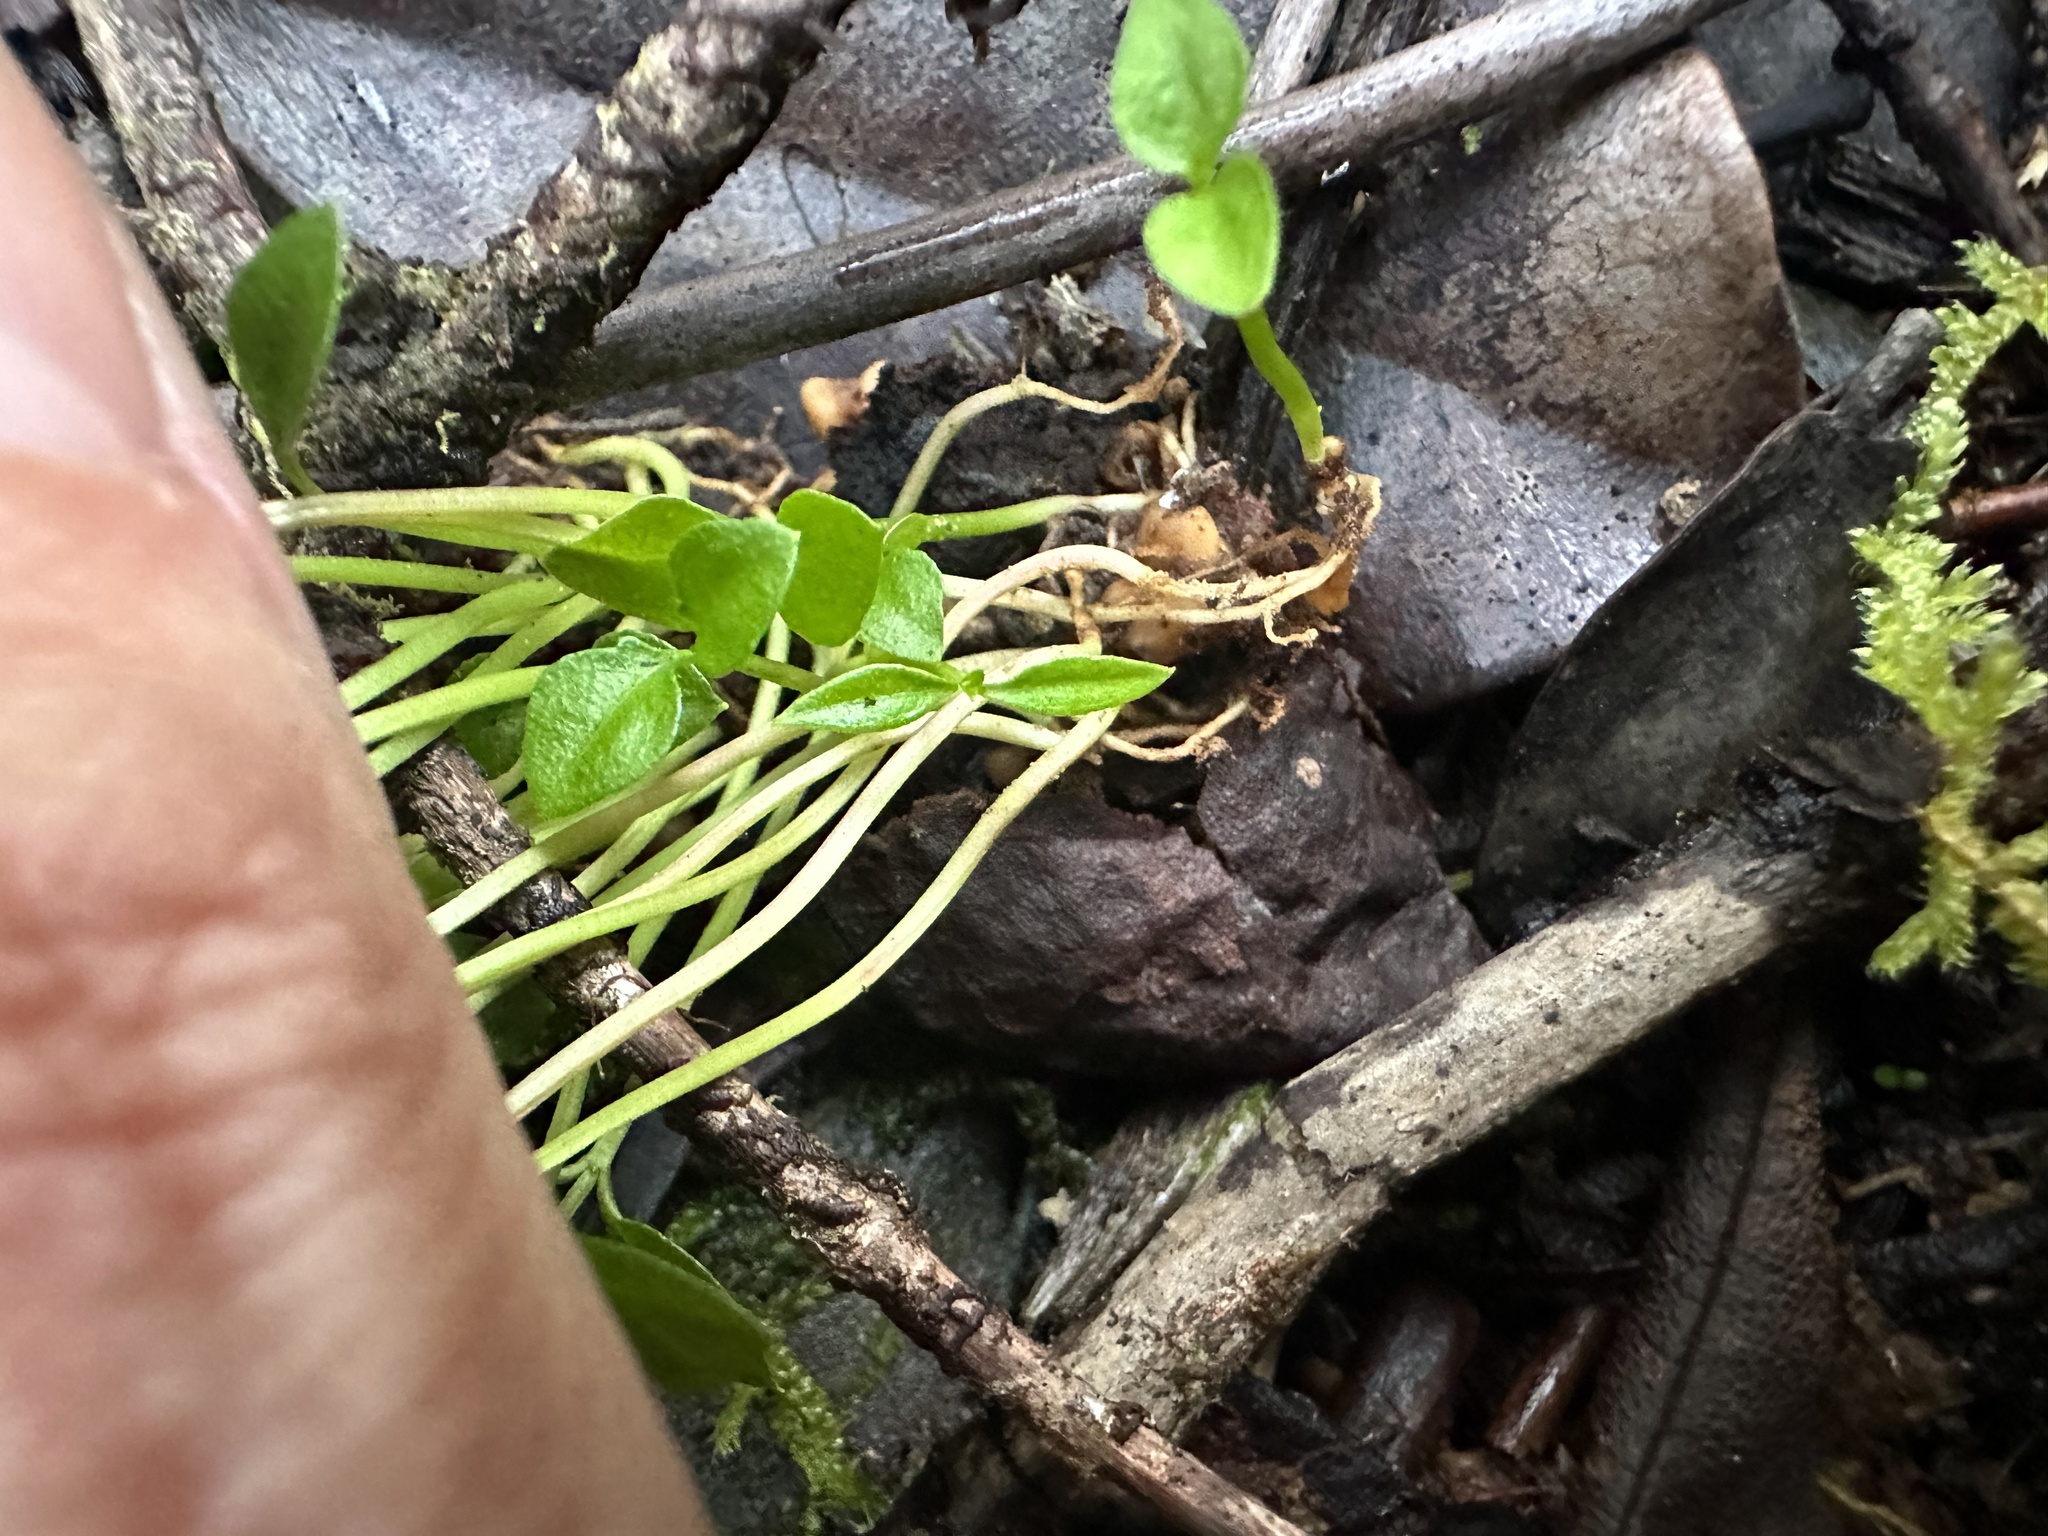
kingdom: Plantae
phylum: Tracheophyta
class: Magnoliopsida
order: Myrtales
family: Myrtaceae
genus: Psidium
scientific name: Psidium cattleianum
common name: Strawberry guava
